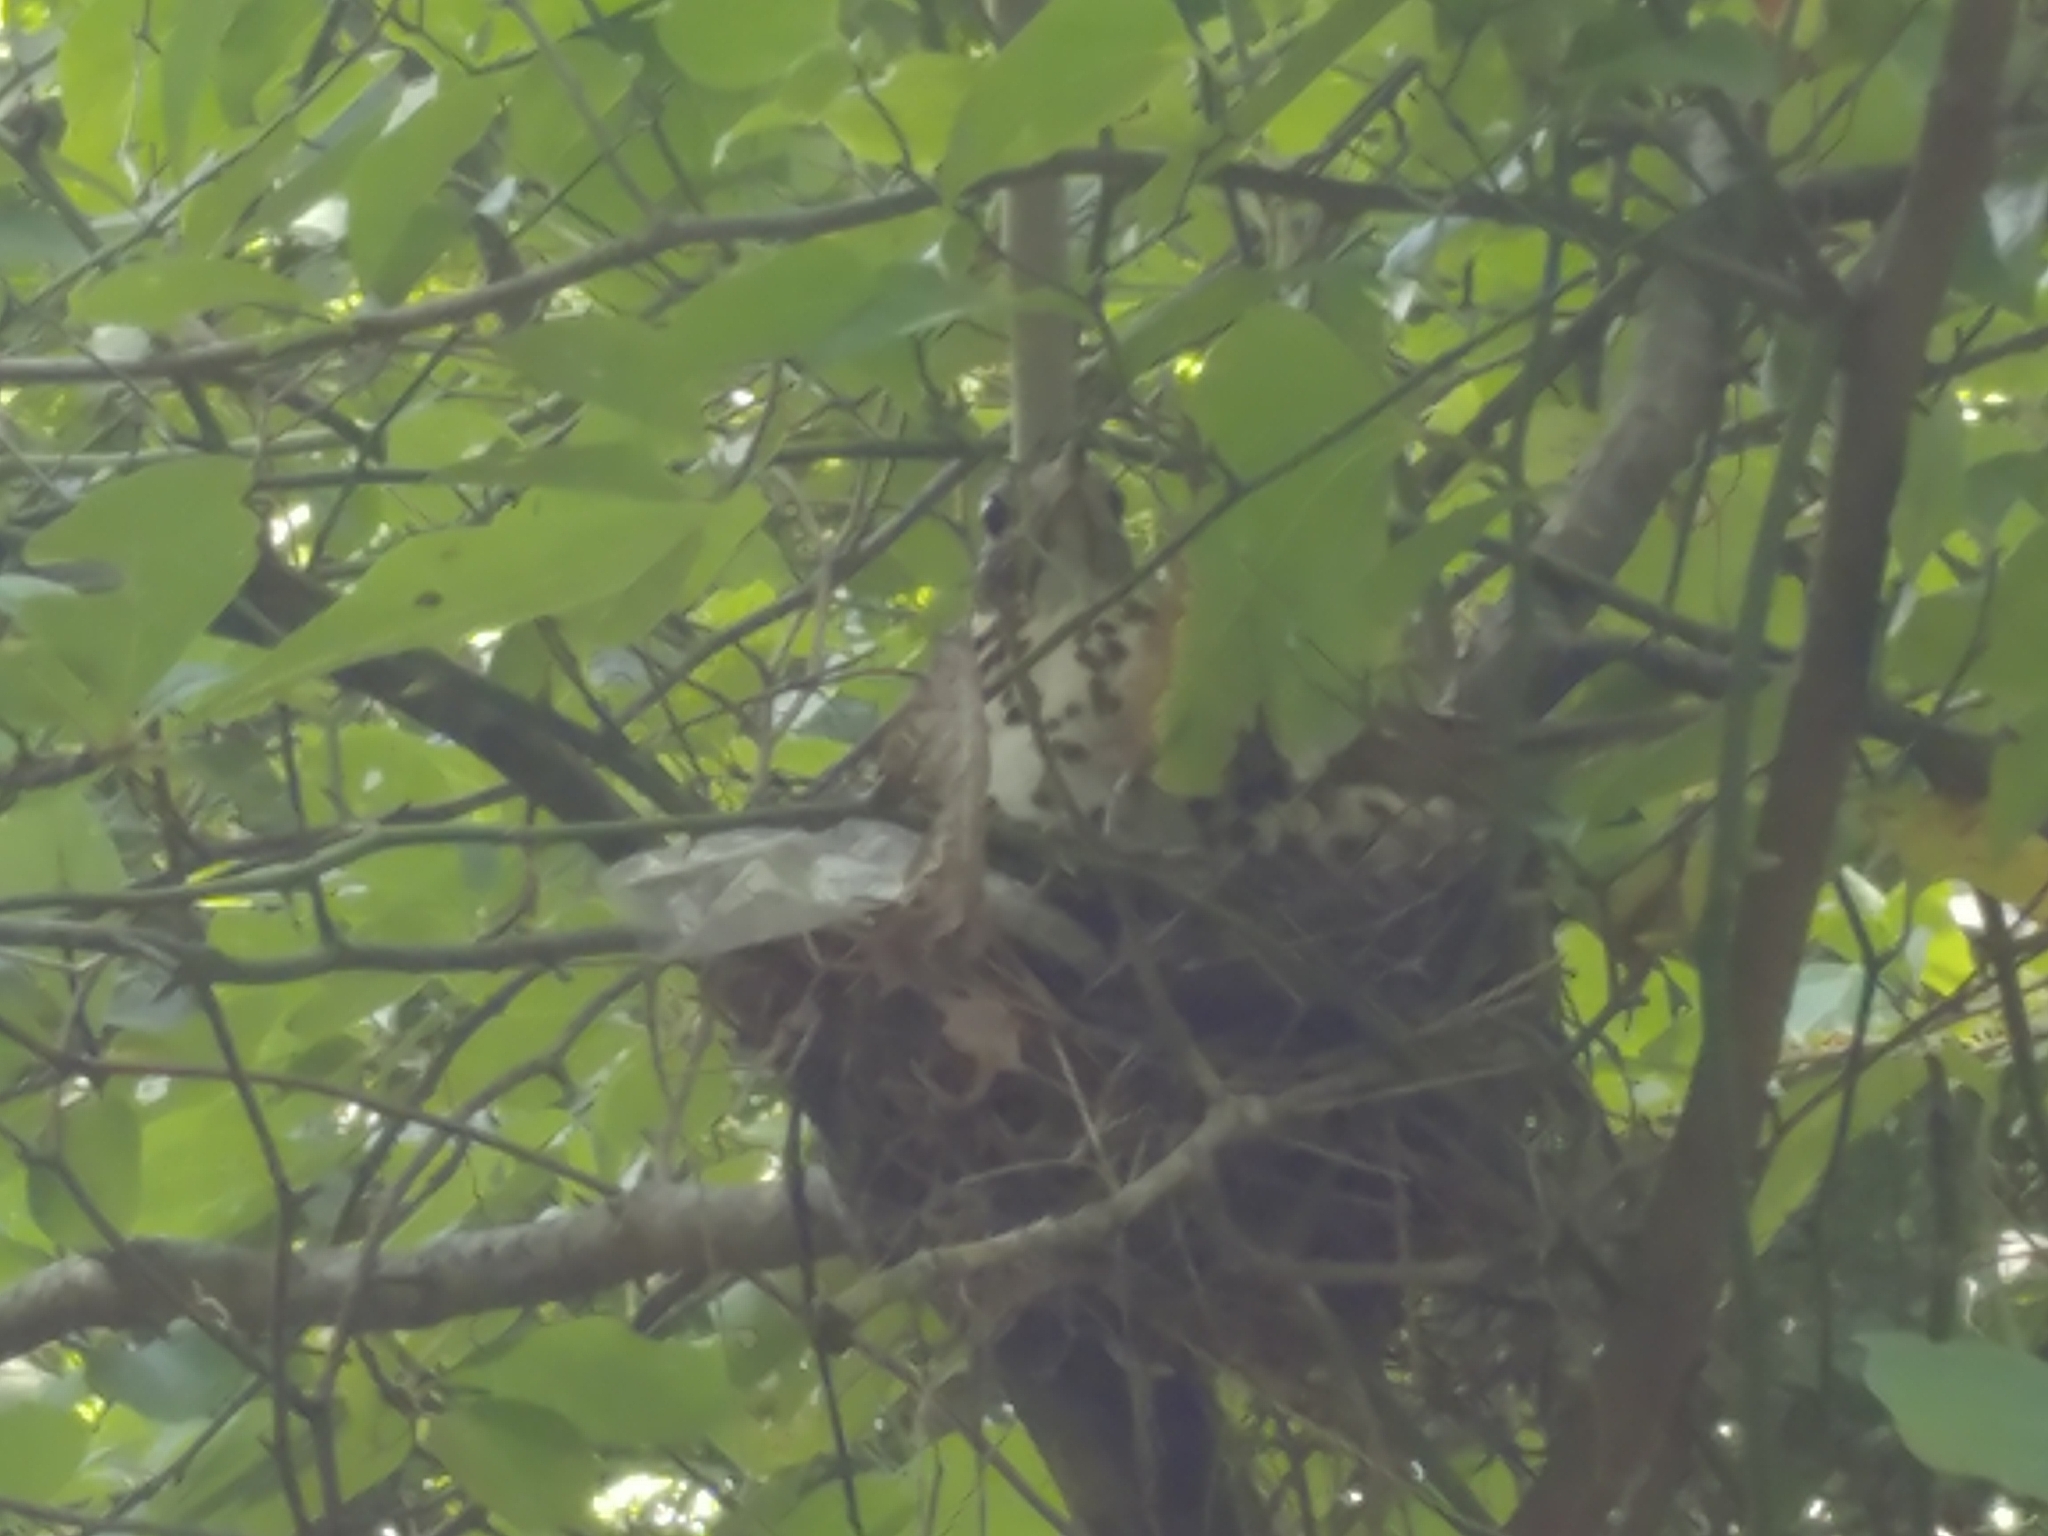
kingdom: Animalia
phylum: Chordata
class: Aves
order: Passeriformes
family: Turdidae
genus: Hylocichla
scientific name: Hylocichla mustelina
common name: Wood thrush
